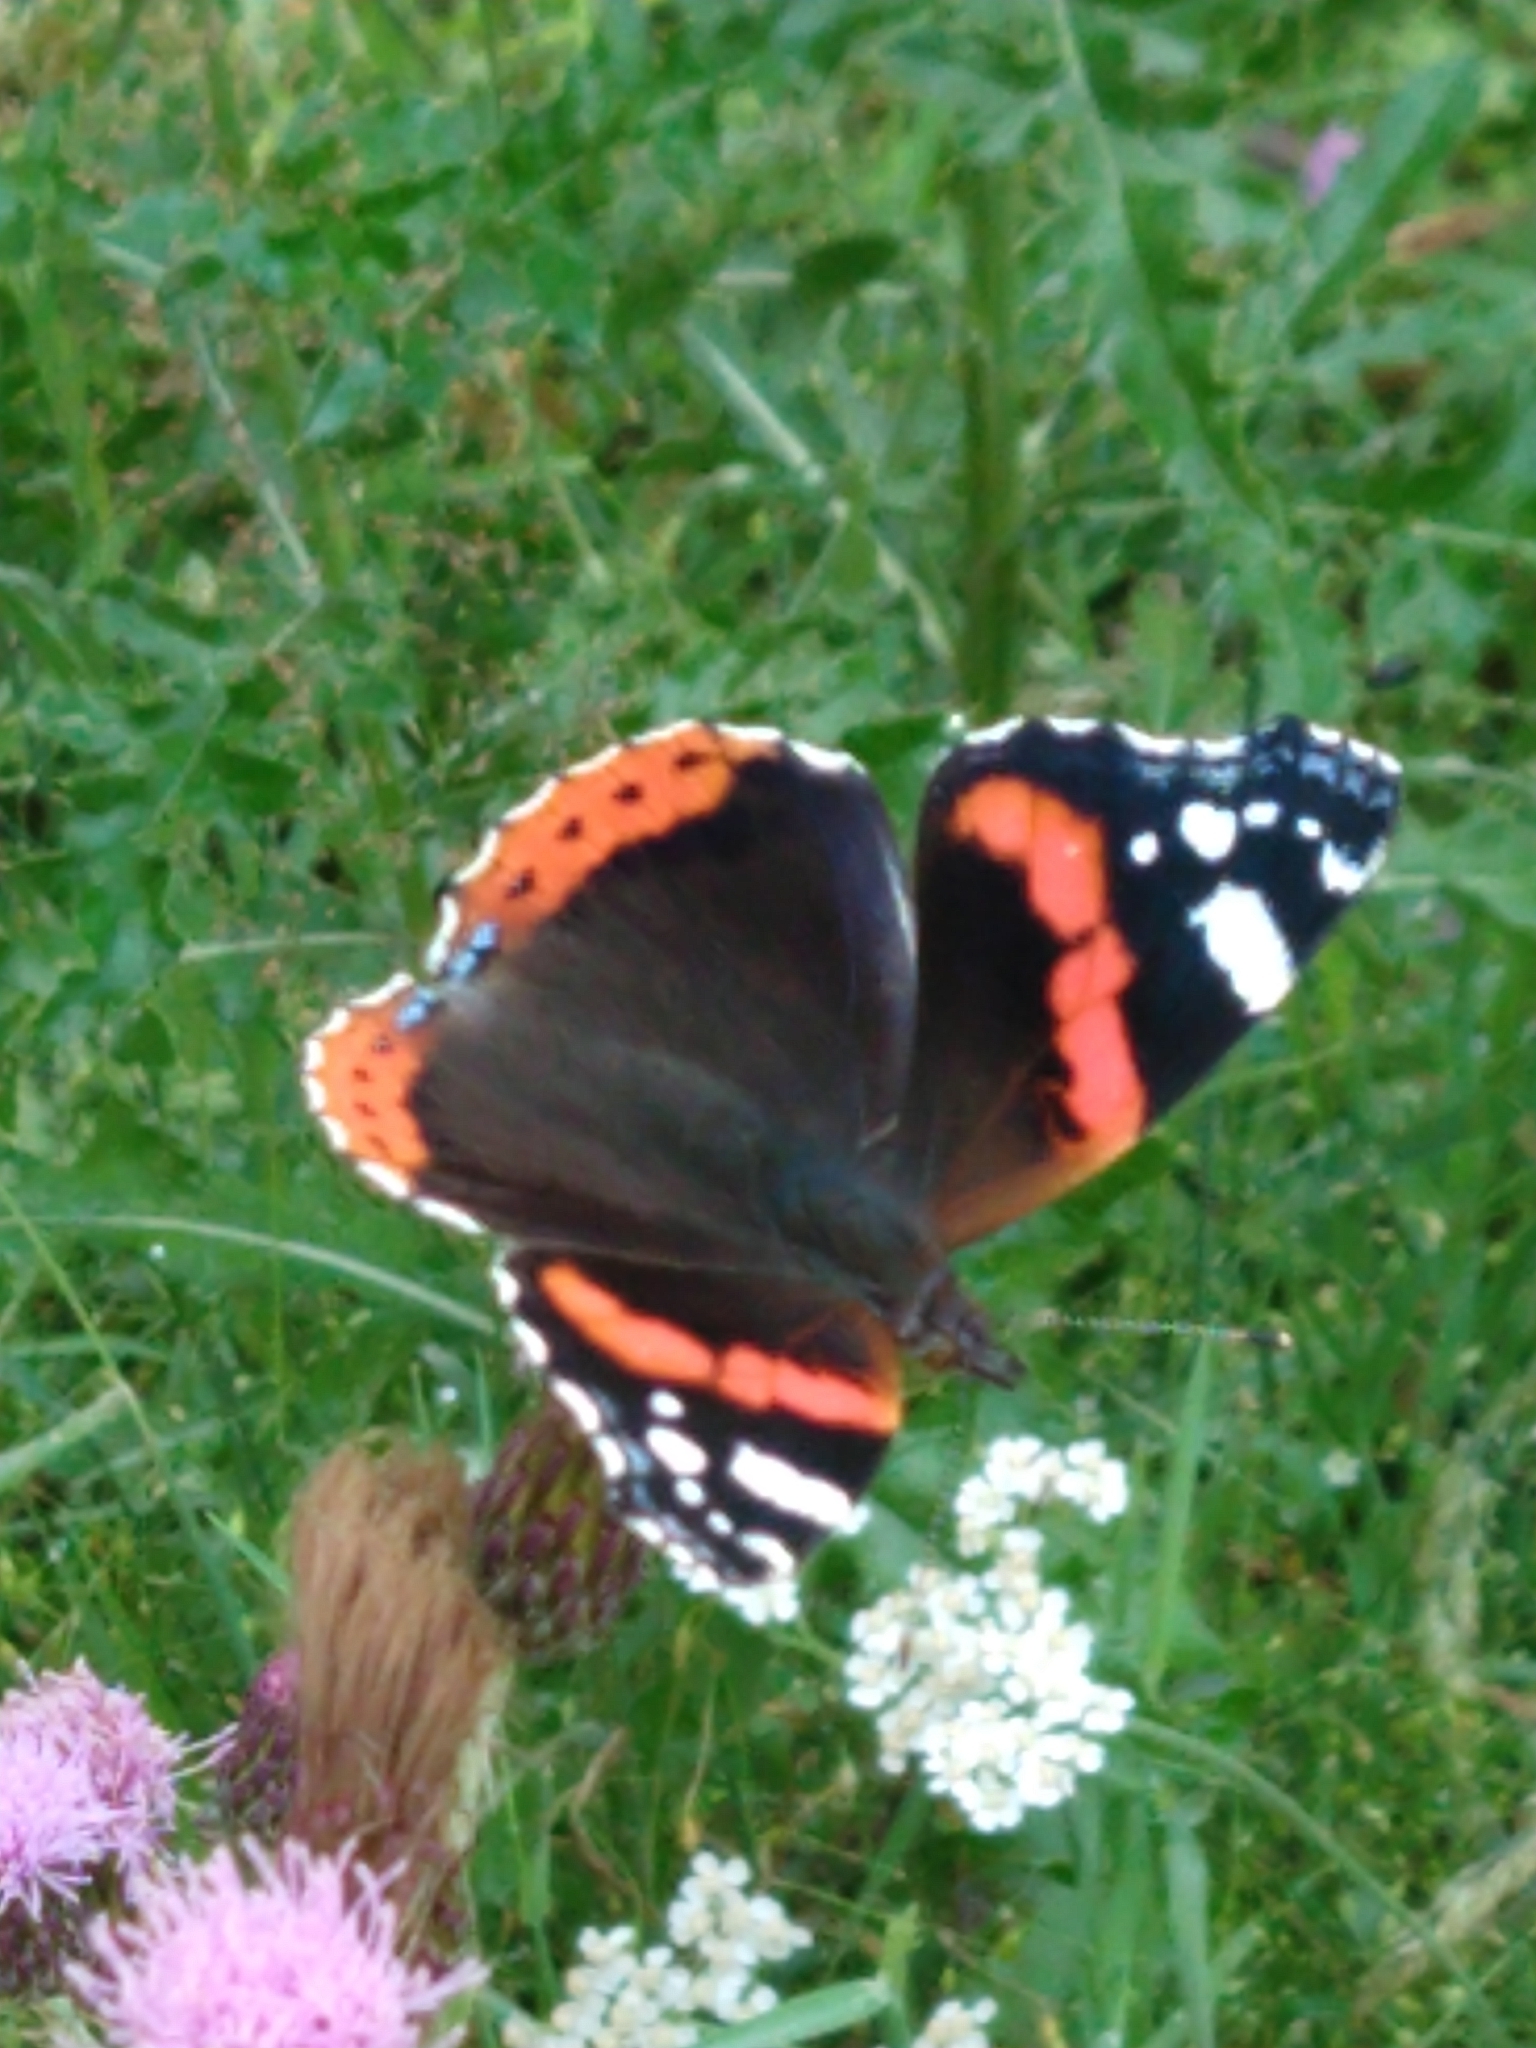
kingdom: Animalia
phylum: Arthropoda
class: Insecta
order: Lepidoptera
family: Nymphalidae
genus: Vanessa
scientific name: Vanessa atalanta
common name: Red admiral
